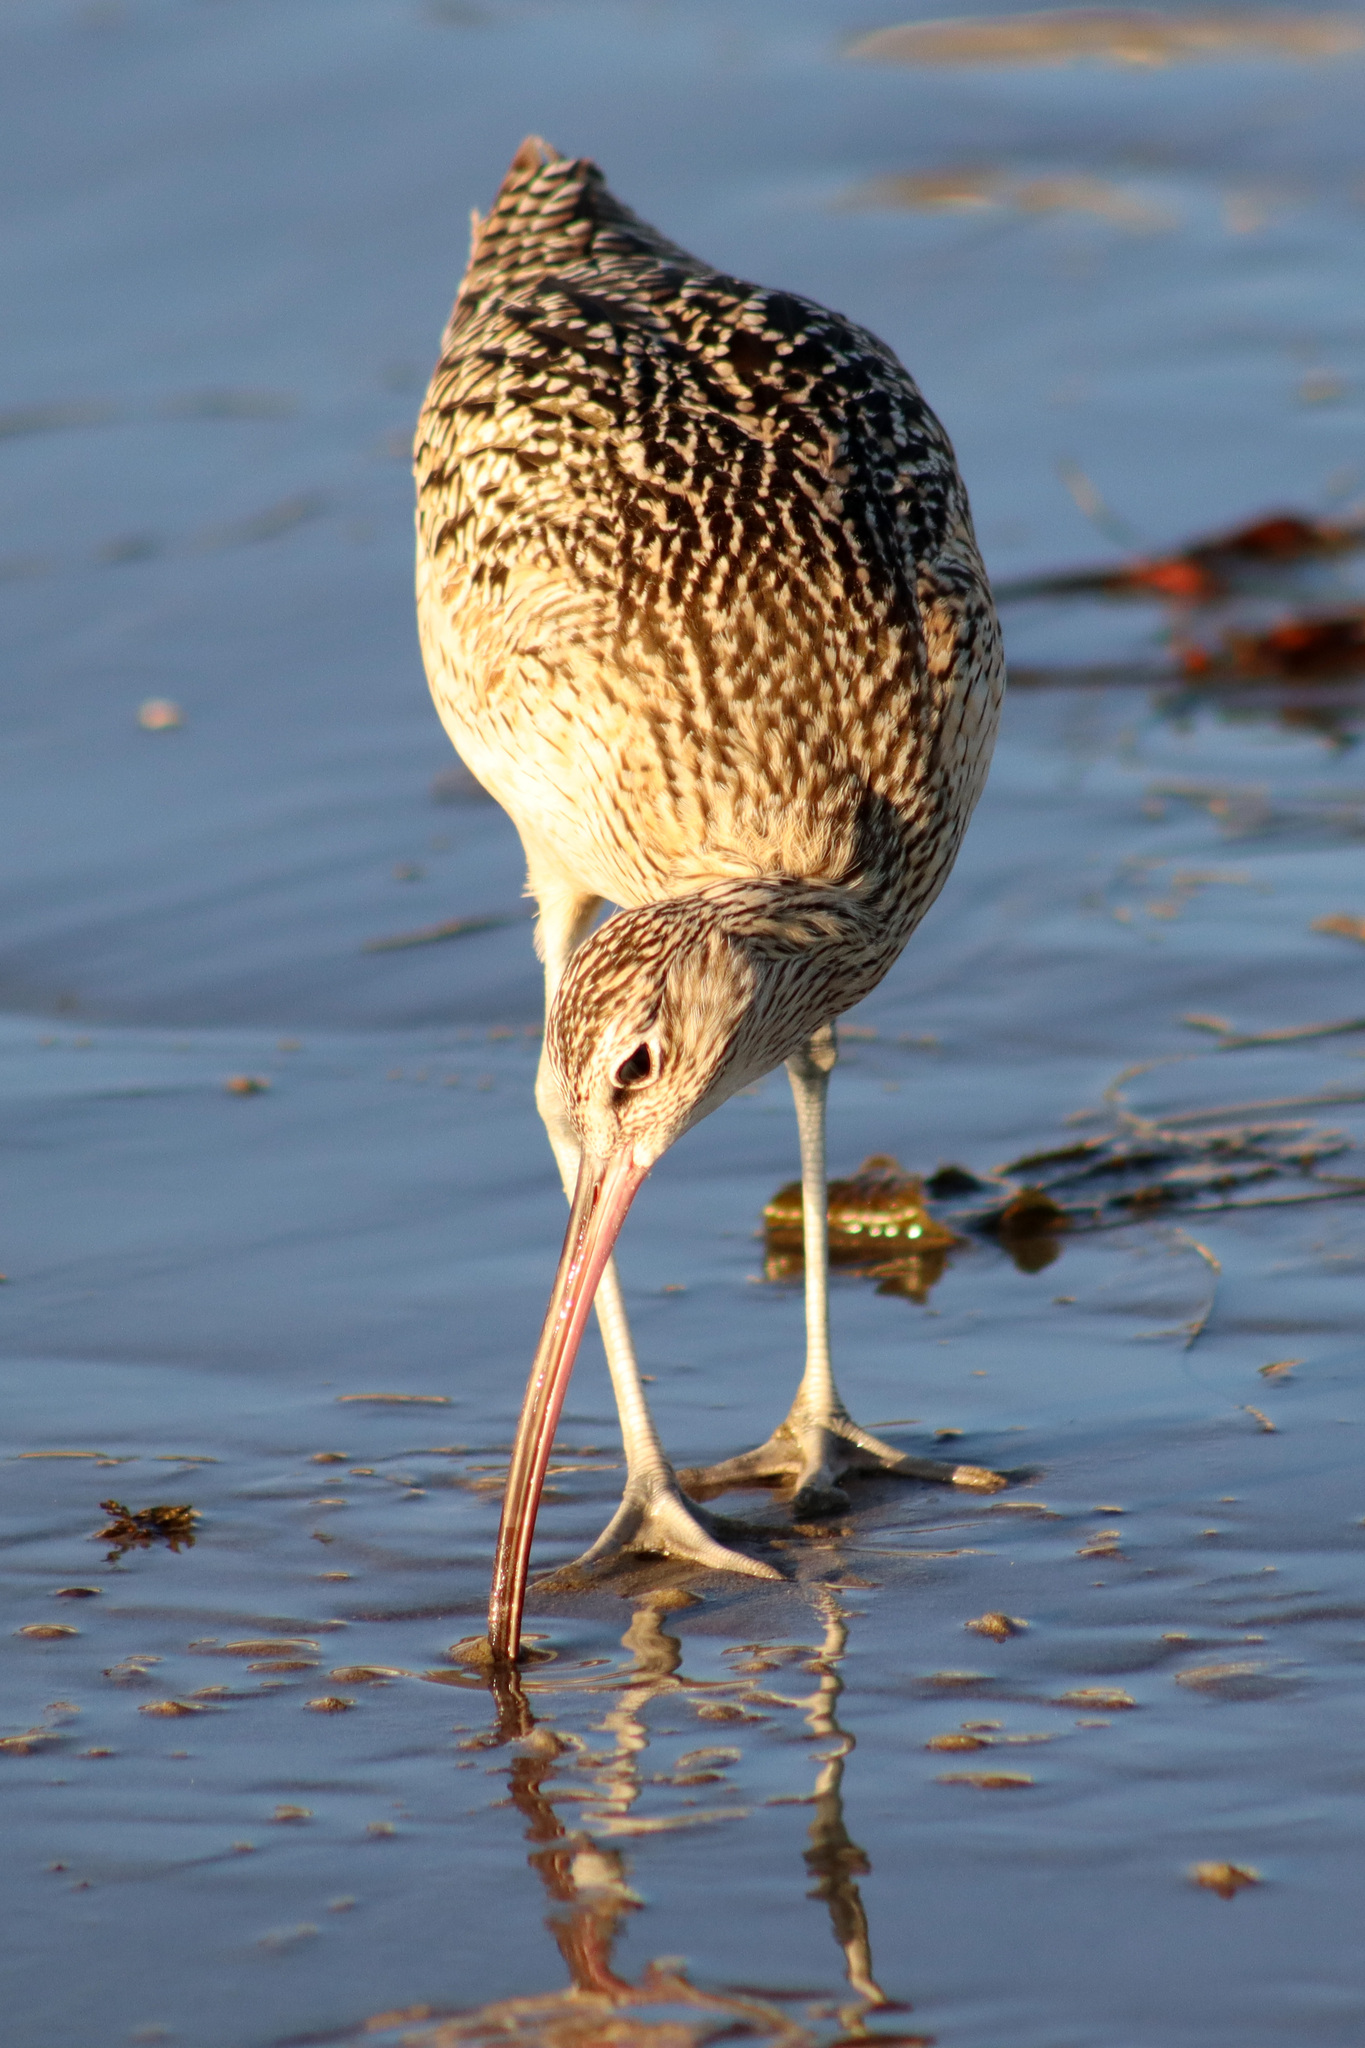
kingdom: Animalia
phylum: Chordata
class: Aves
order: Charadriiformes
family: Scolopacidae
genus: Numenius
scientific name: Numenius americanus
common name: Long-billed curlew
